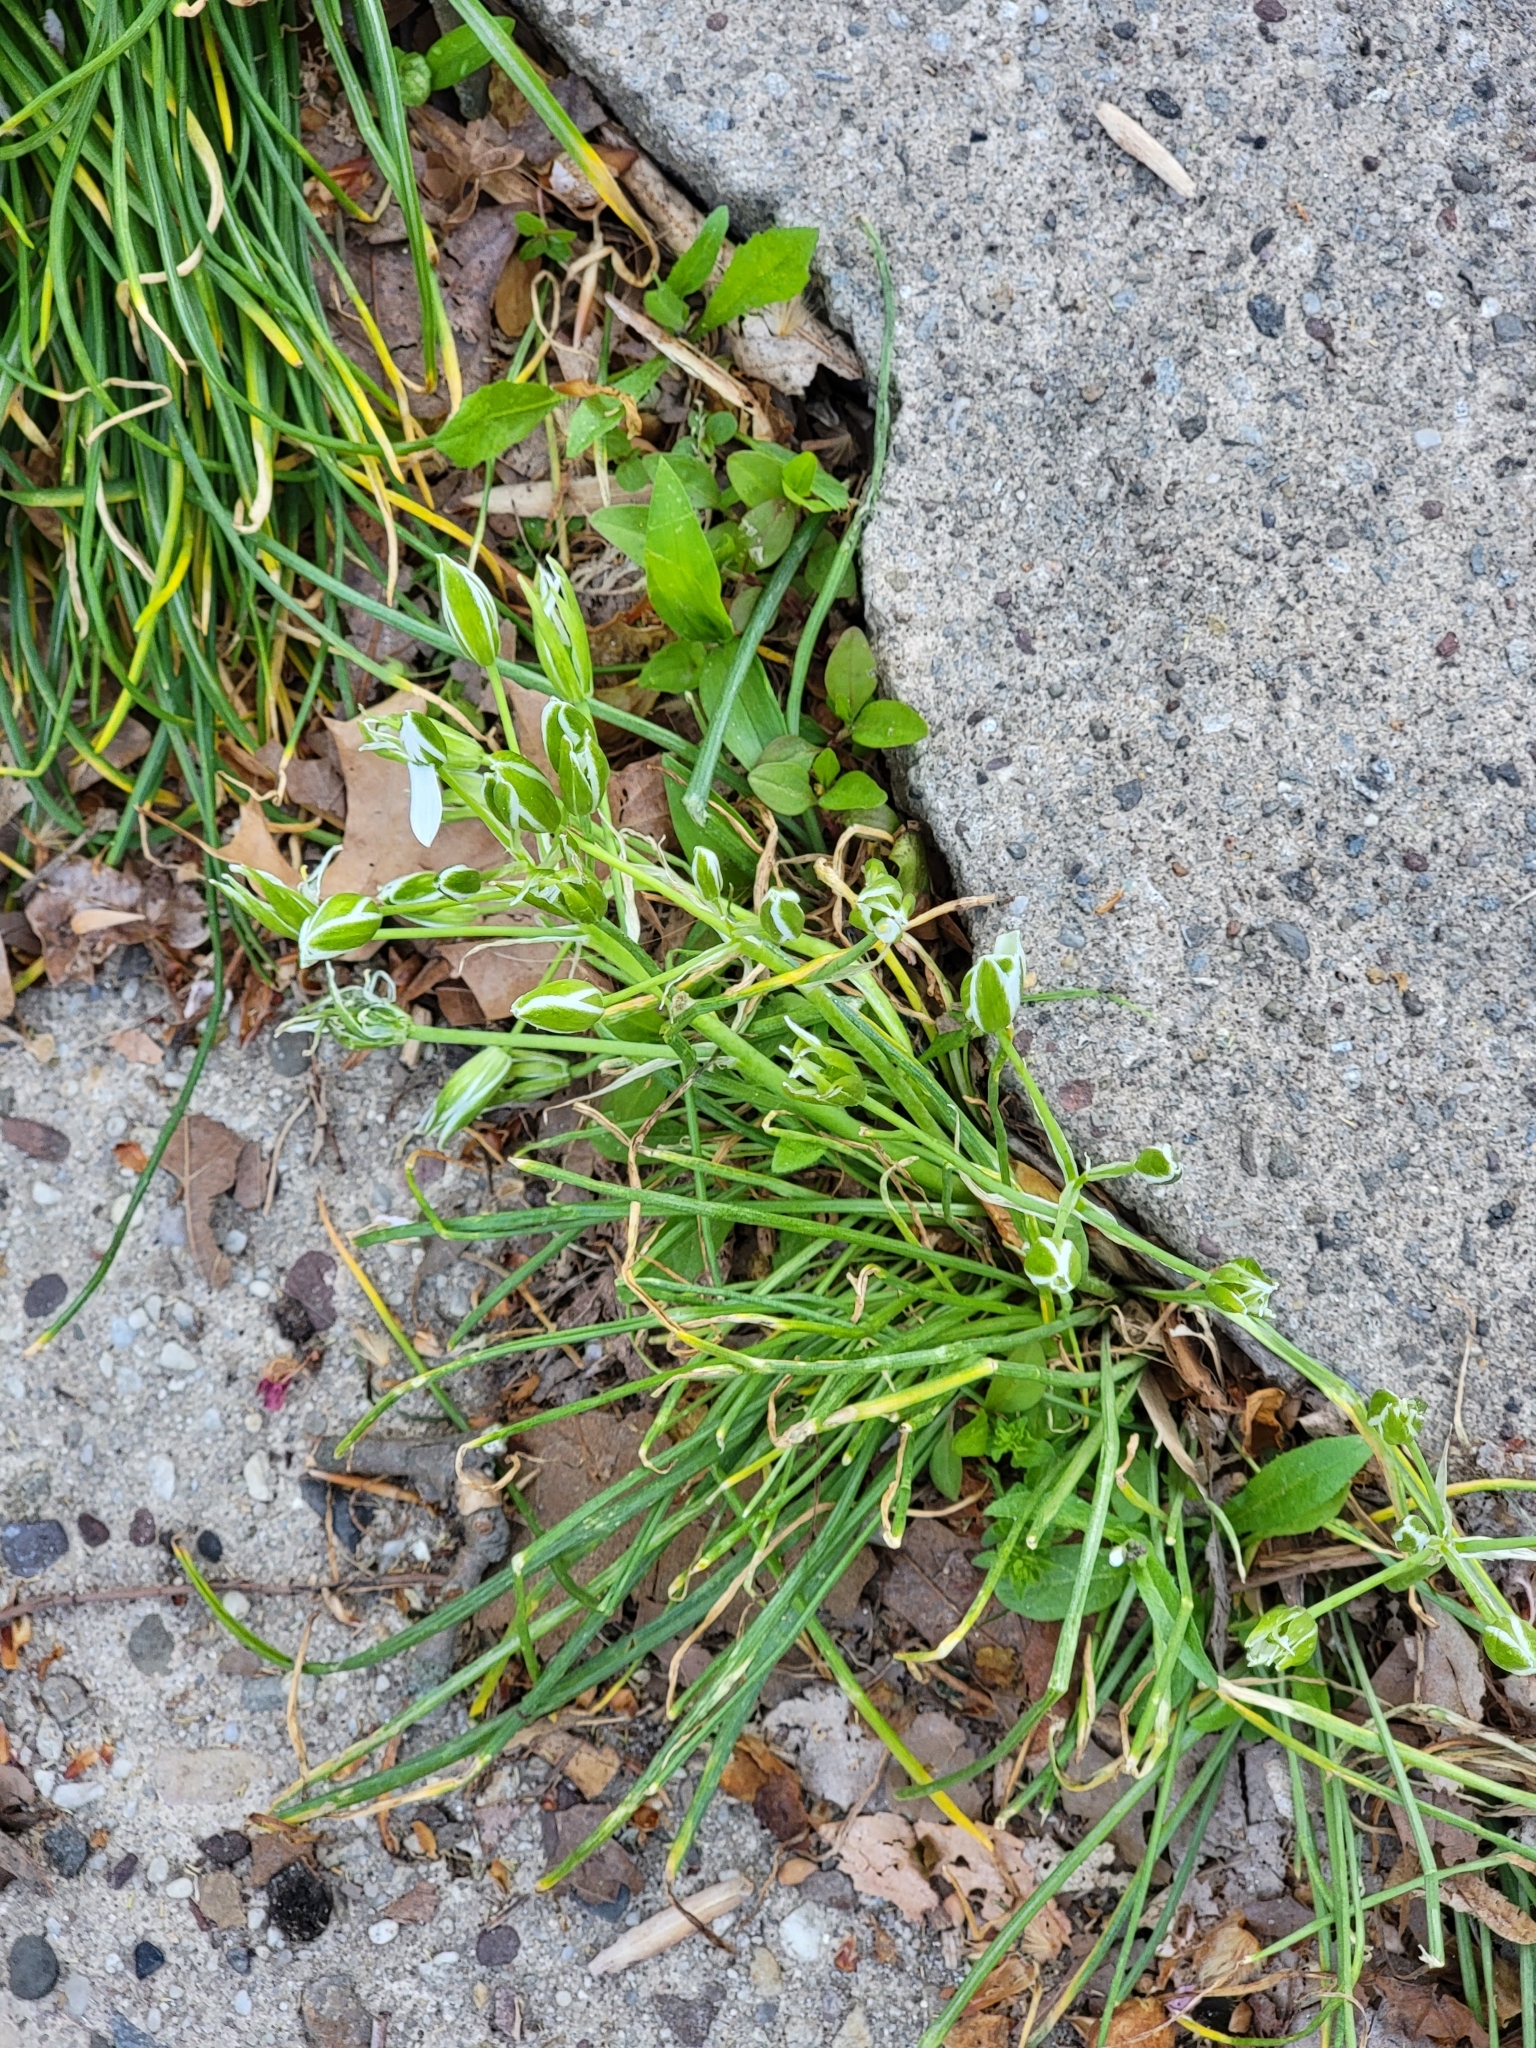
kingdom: Plantae
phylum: Tracheophyta
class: Liliopsida
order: Asparagales
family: Asparagaceae
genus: Ornithogalum
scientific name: Ornithogalum umbellatum
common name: Garden star-of-bethlehem
